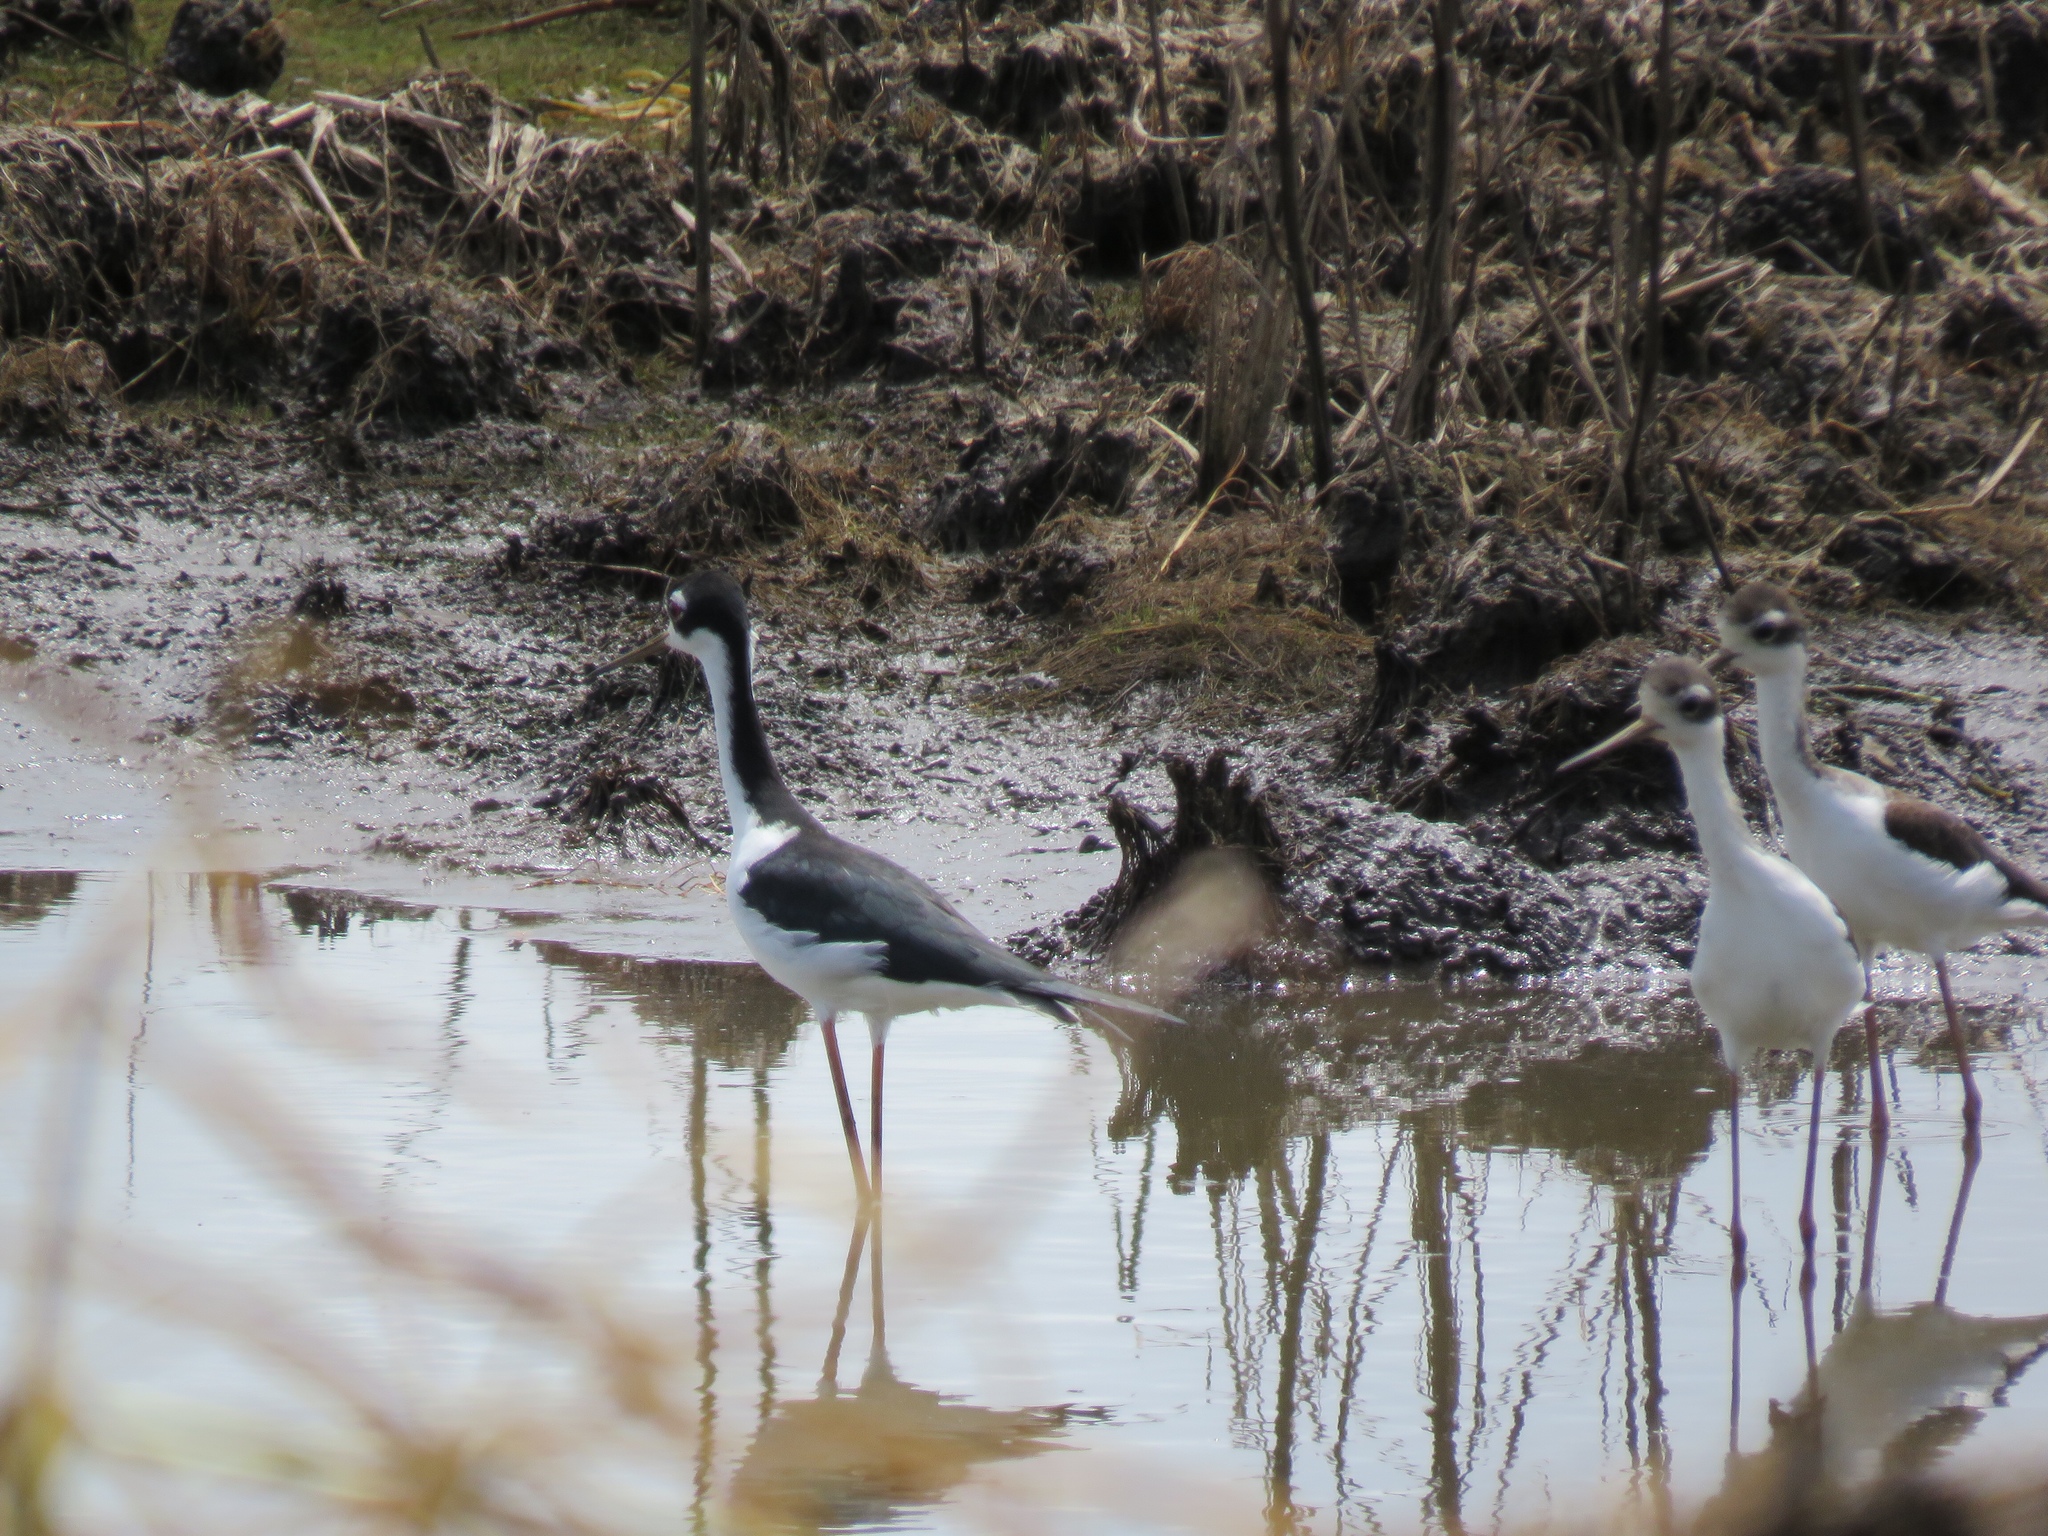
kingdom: Animalia
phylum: Chordata
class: Aves
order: Charadriiformes
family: Recurvirostridae
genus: Himantopus
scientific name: Himantopus mexicanus
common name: Black-necked stilt
